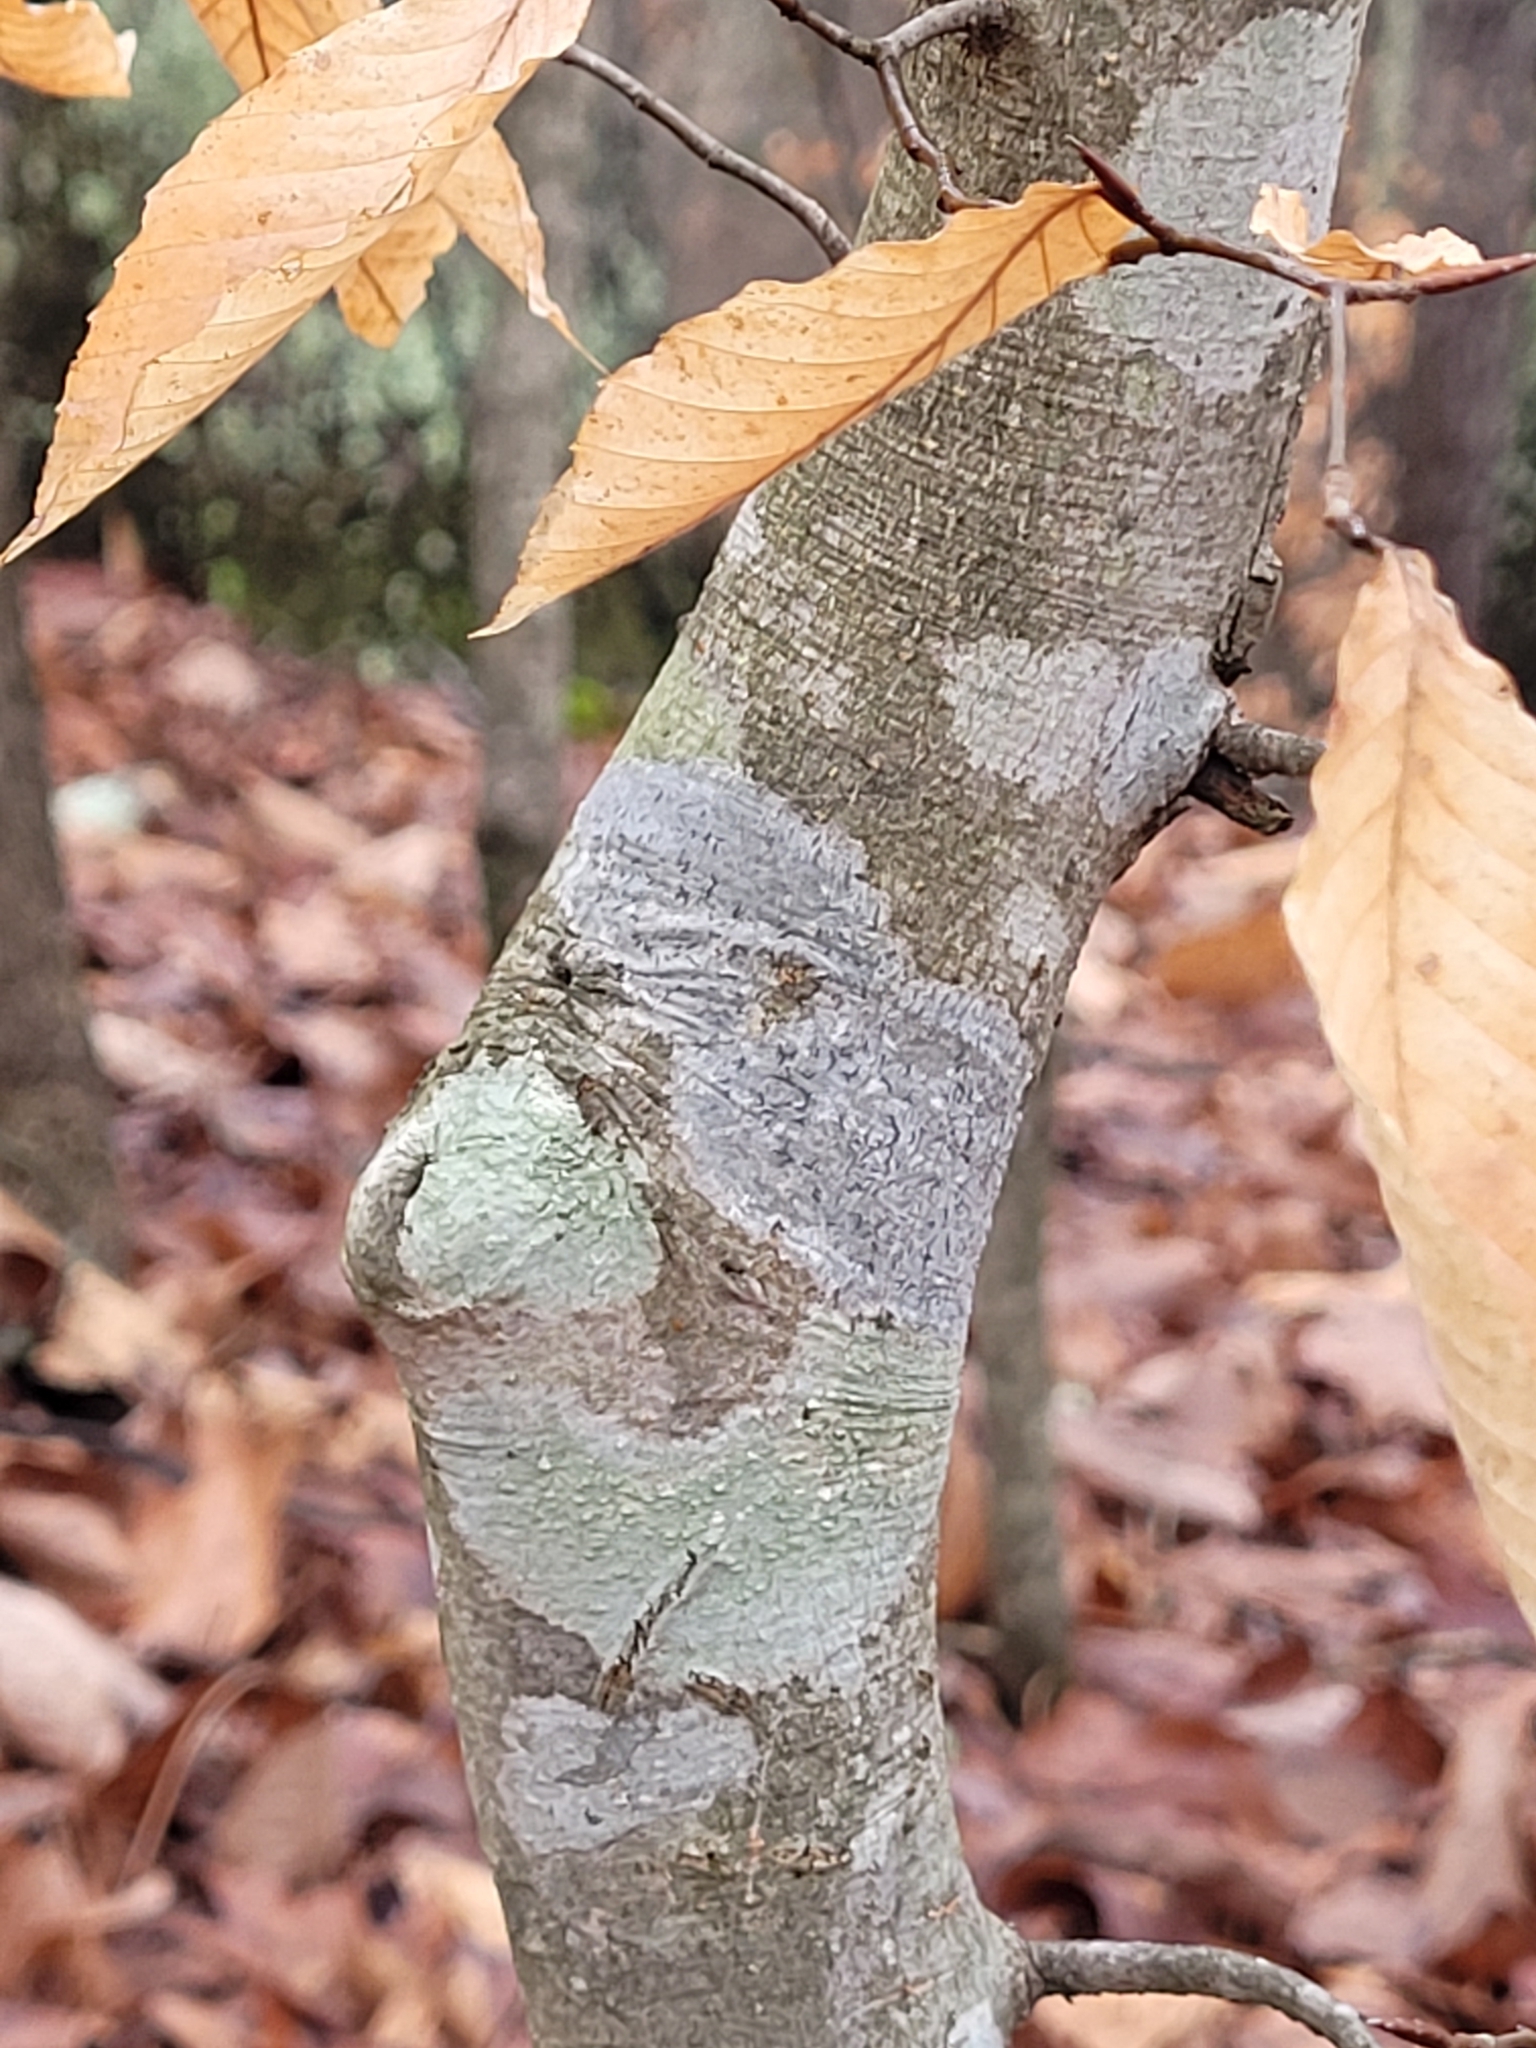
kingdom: Plantae
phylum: Tracheophyta
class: Magnoliopsida
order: Fagales
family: Fagaceae
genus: Fagus
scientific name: Fagus grandifolia
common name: American beech
